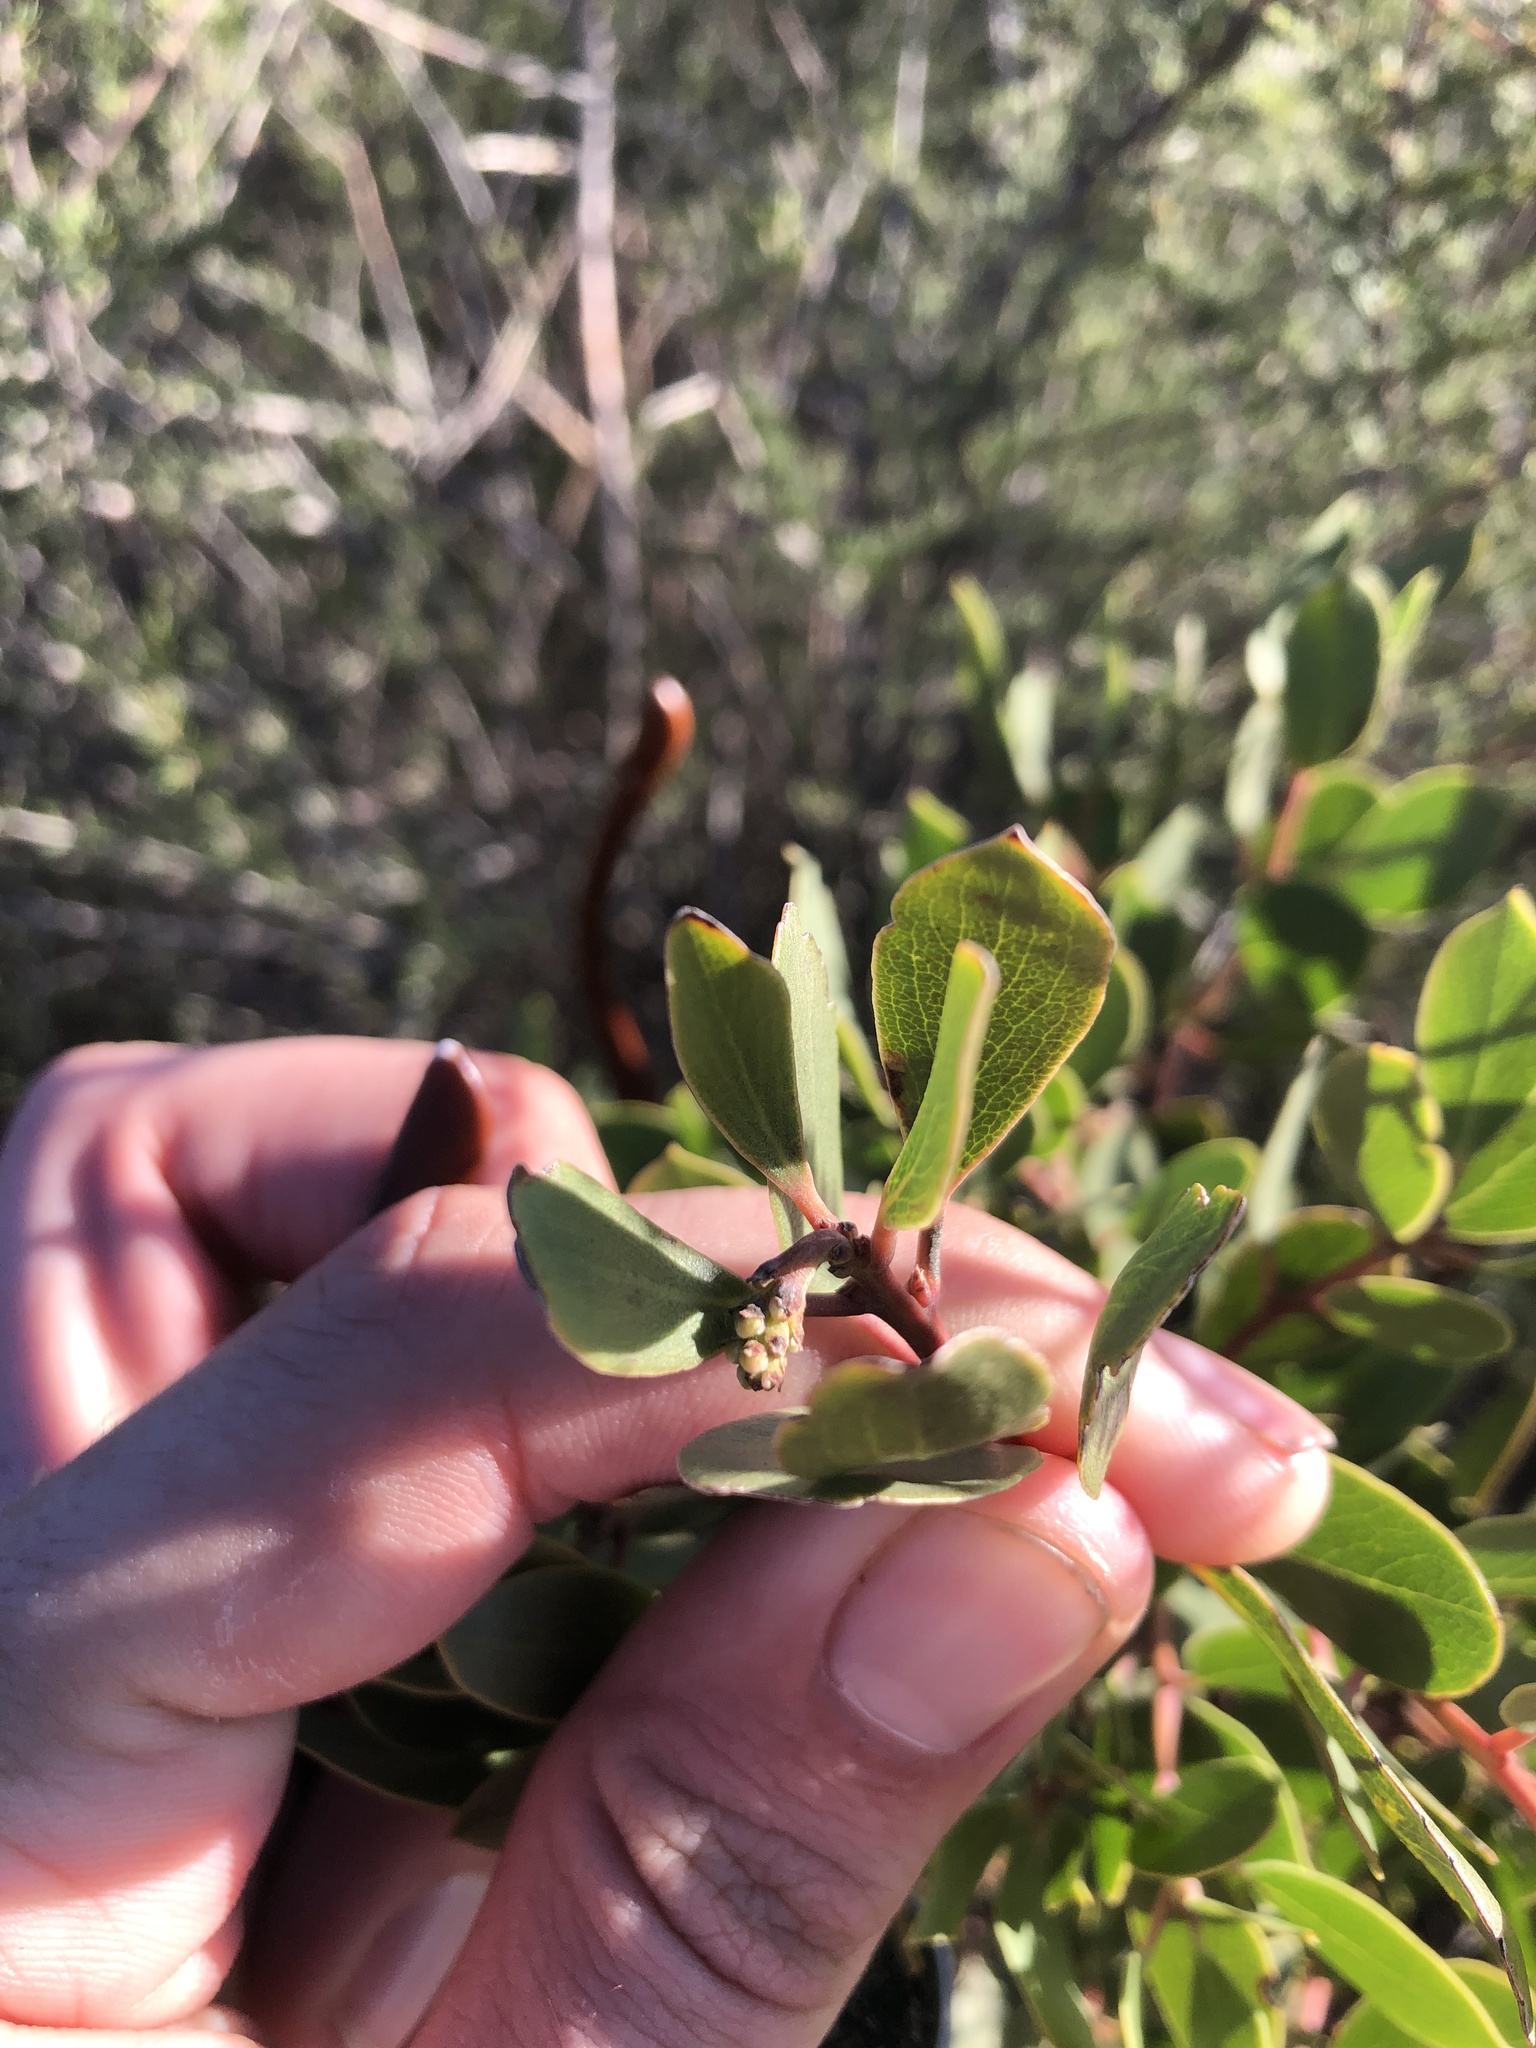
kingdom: Plantae
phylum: Tracheophyta
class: Magnoliopsida
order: Ericales
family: Ericaceae
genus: Arctostaphylos
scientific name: Arctostaphylos manzanita
